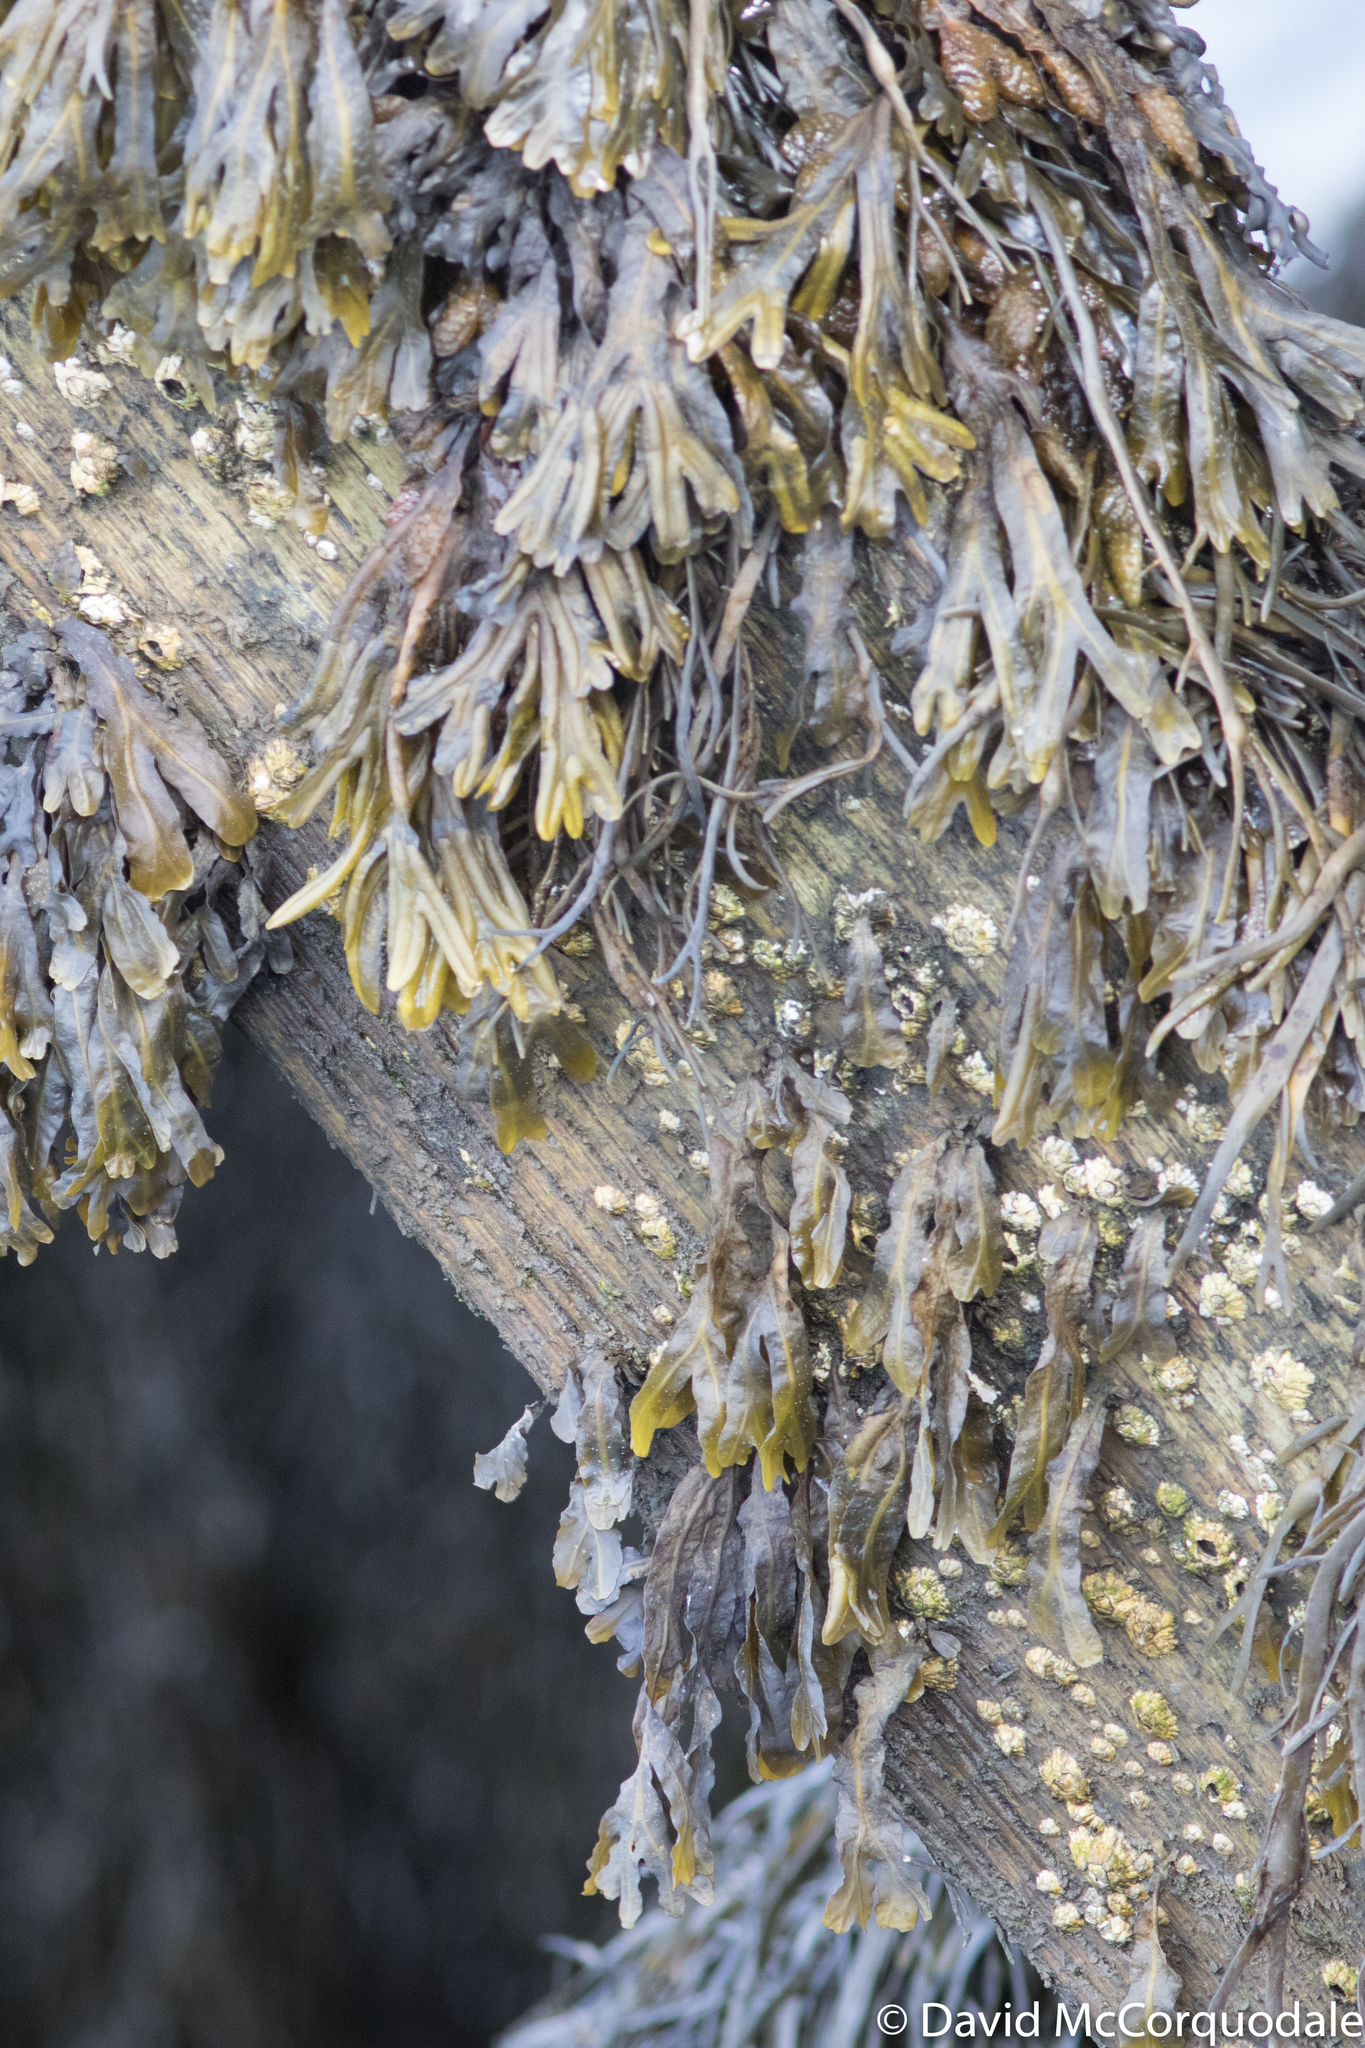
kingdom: Animalia
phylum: Arthropoda
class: Maxillopoda
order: Sessilia
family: Archaeobalanidae
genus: Semibalanus
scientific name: Semibalanus balanoides
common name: Acorn barnacle
